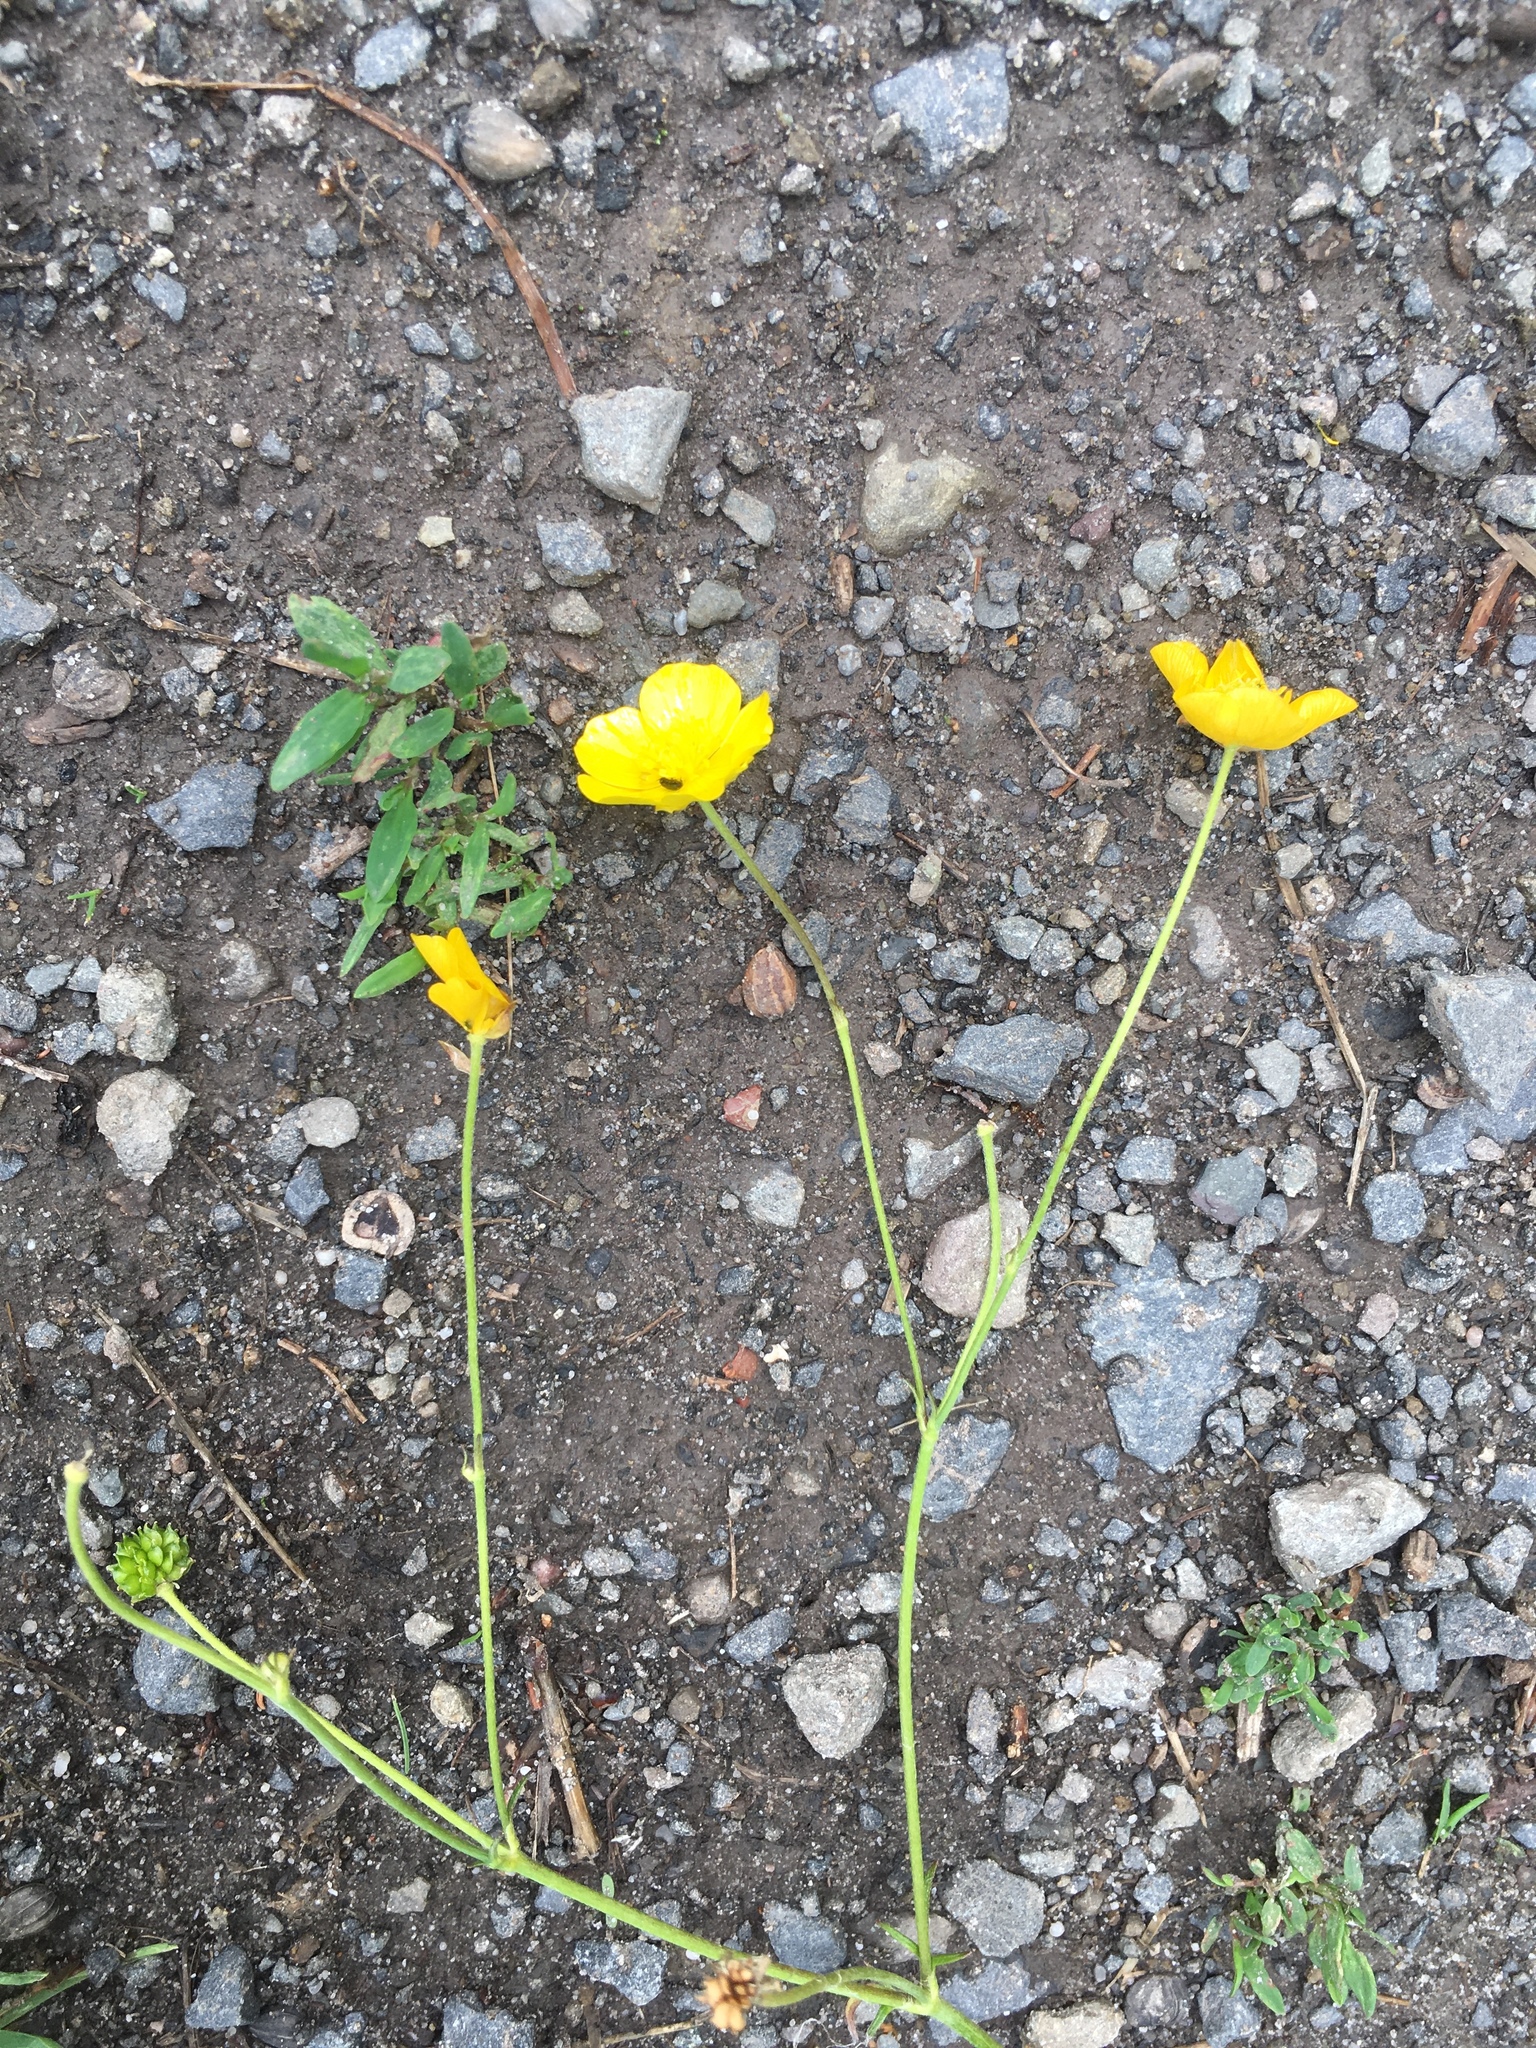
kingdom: Plantae
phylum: Tracheophyta
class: Magnoliopsida
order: Ranunculales
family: Ranunculaceae
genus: Ranunculus
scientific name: Ranunculus acris
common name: Meadow buttercup
